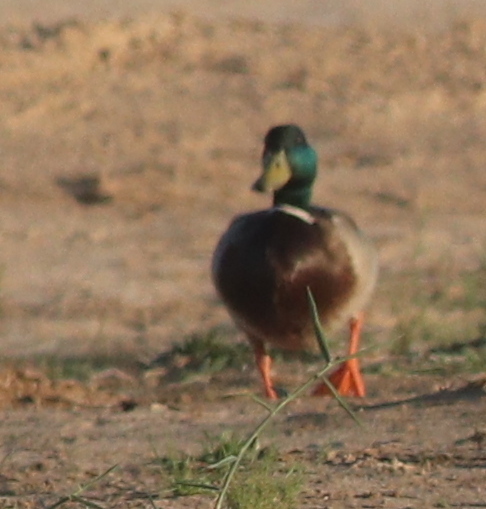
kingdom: Animalia
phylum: Chordata
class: Aves
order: Anseriformes
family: Anatidae
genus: Anas
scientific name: Anas platyrhynchos
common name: Mallard
